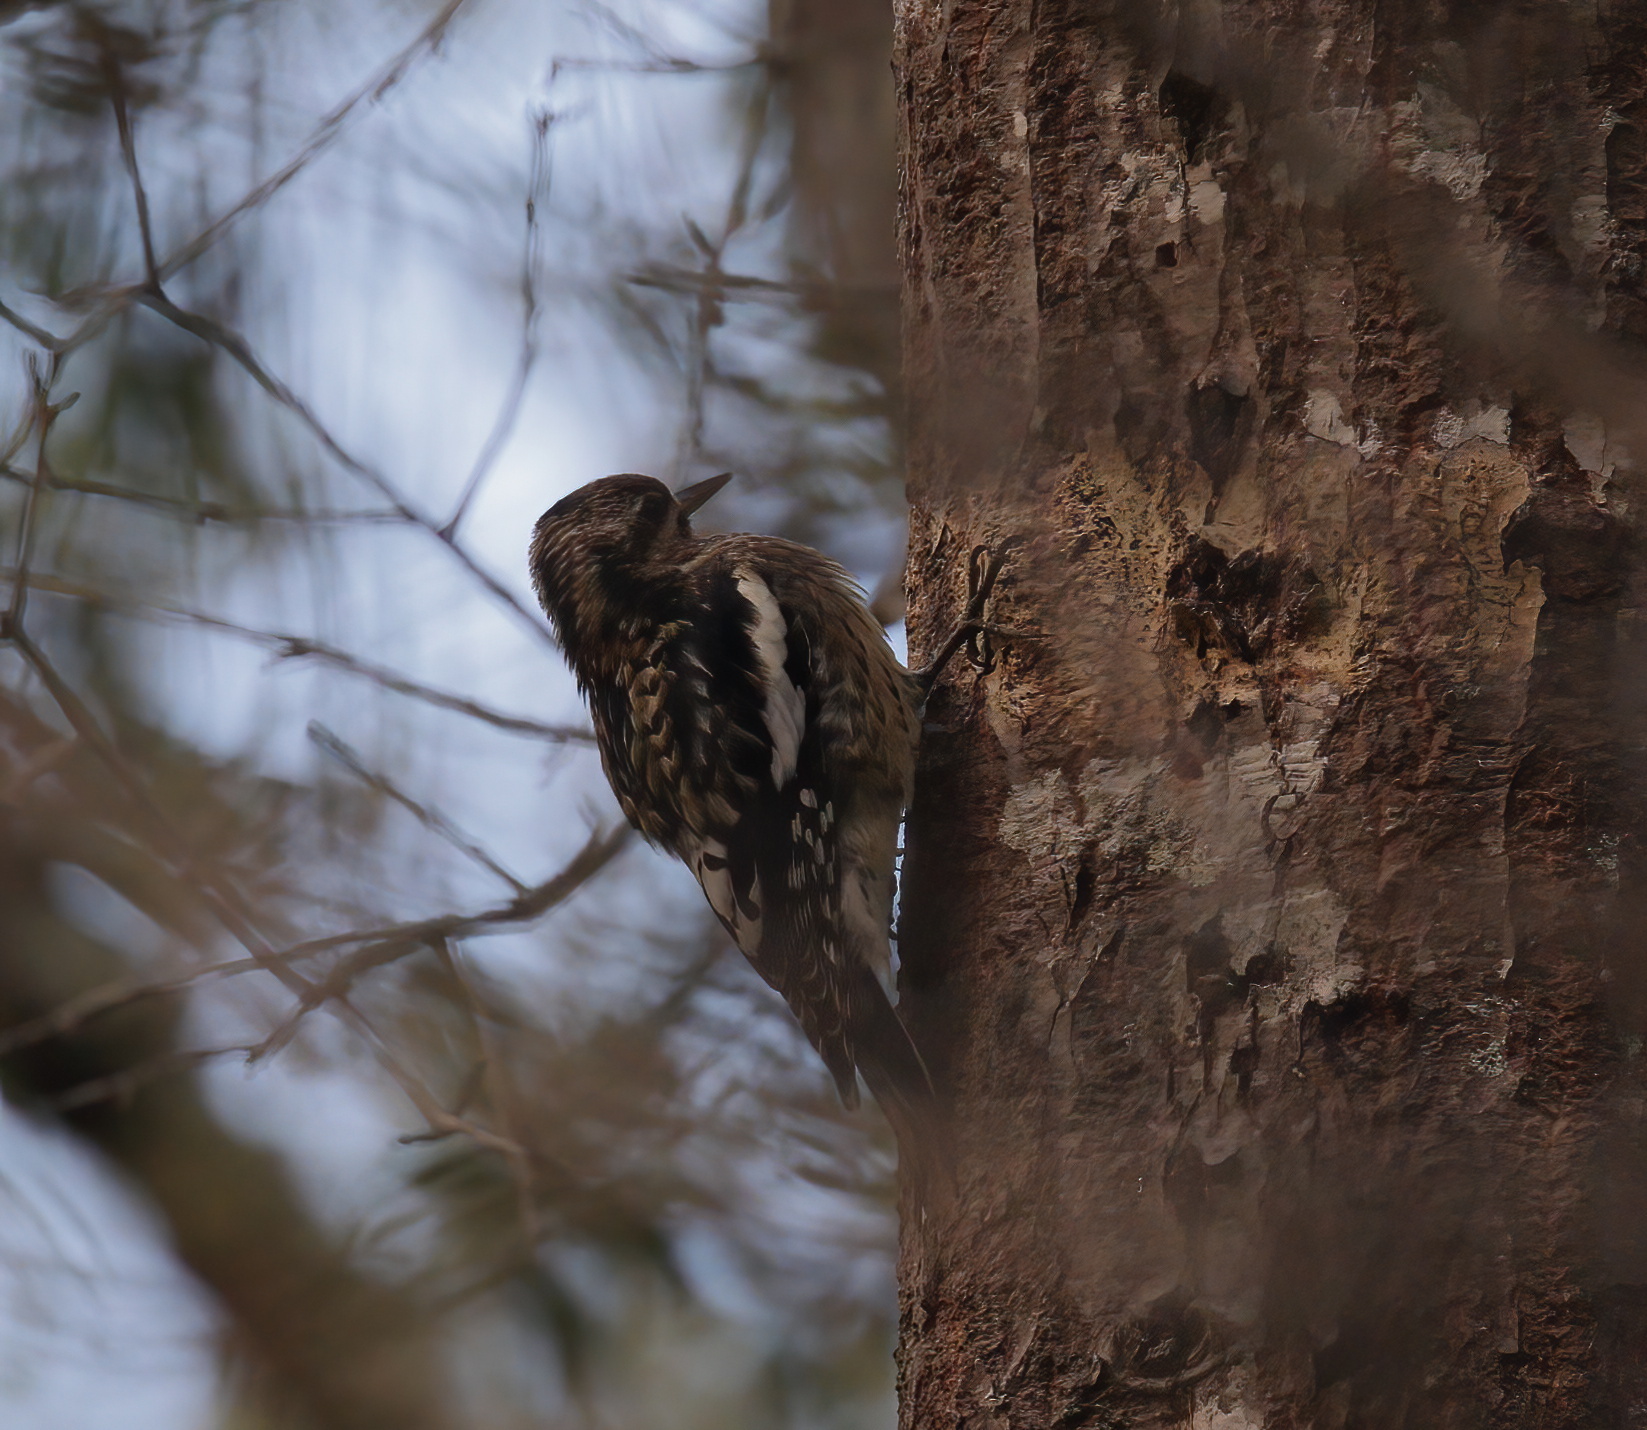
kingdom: Animalia
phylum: Chordata
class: Aves
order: Piciformes
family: Picidae
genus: Sphyrapicus
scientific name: Sphyrapicus varius
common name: Yellow-bellied sapsucker
